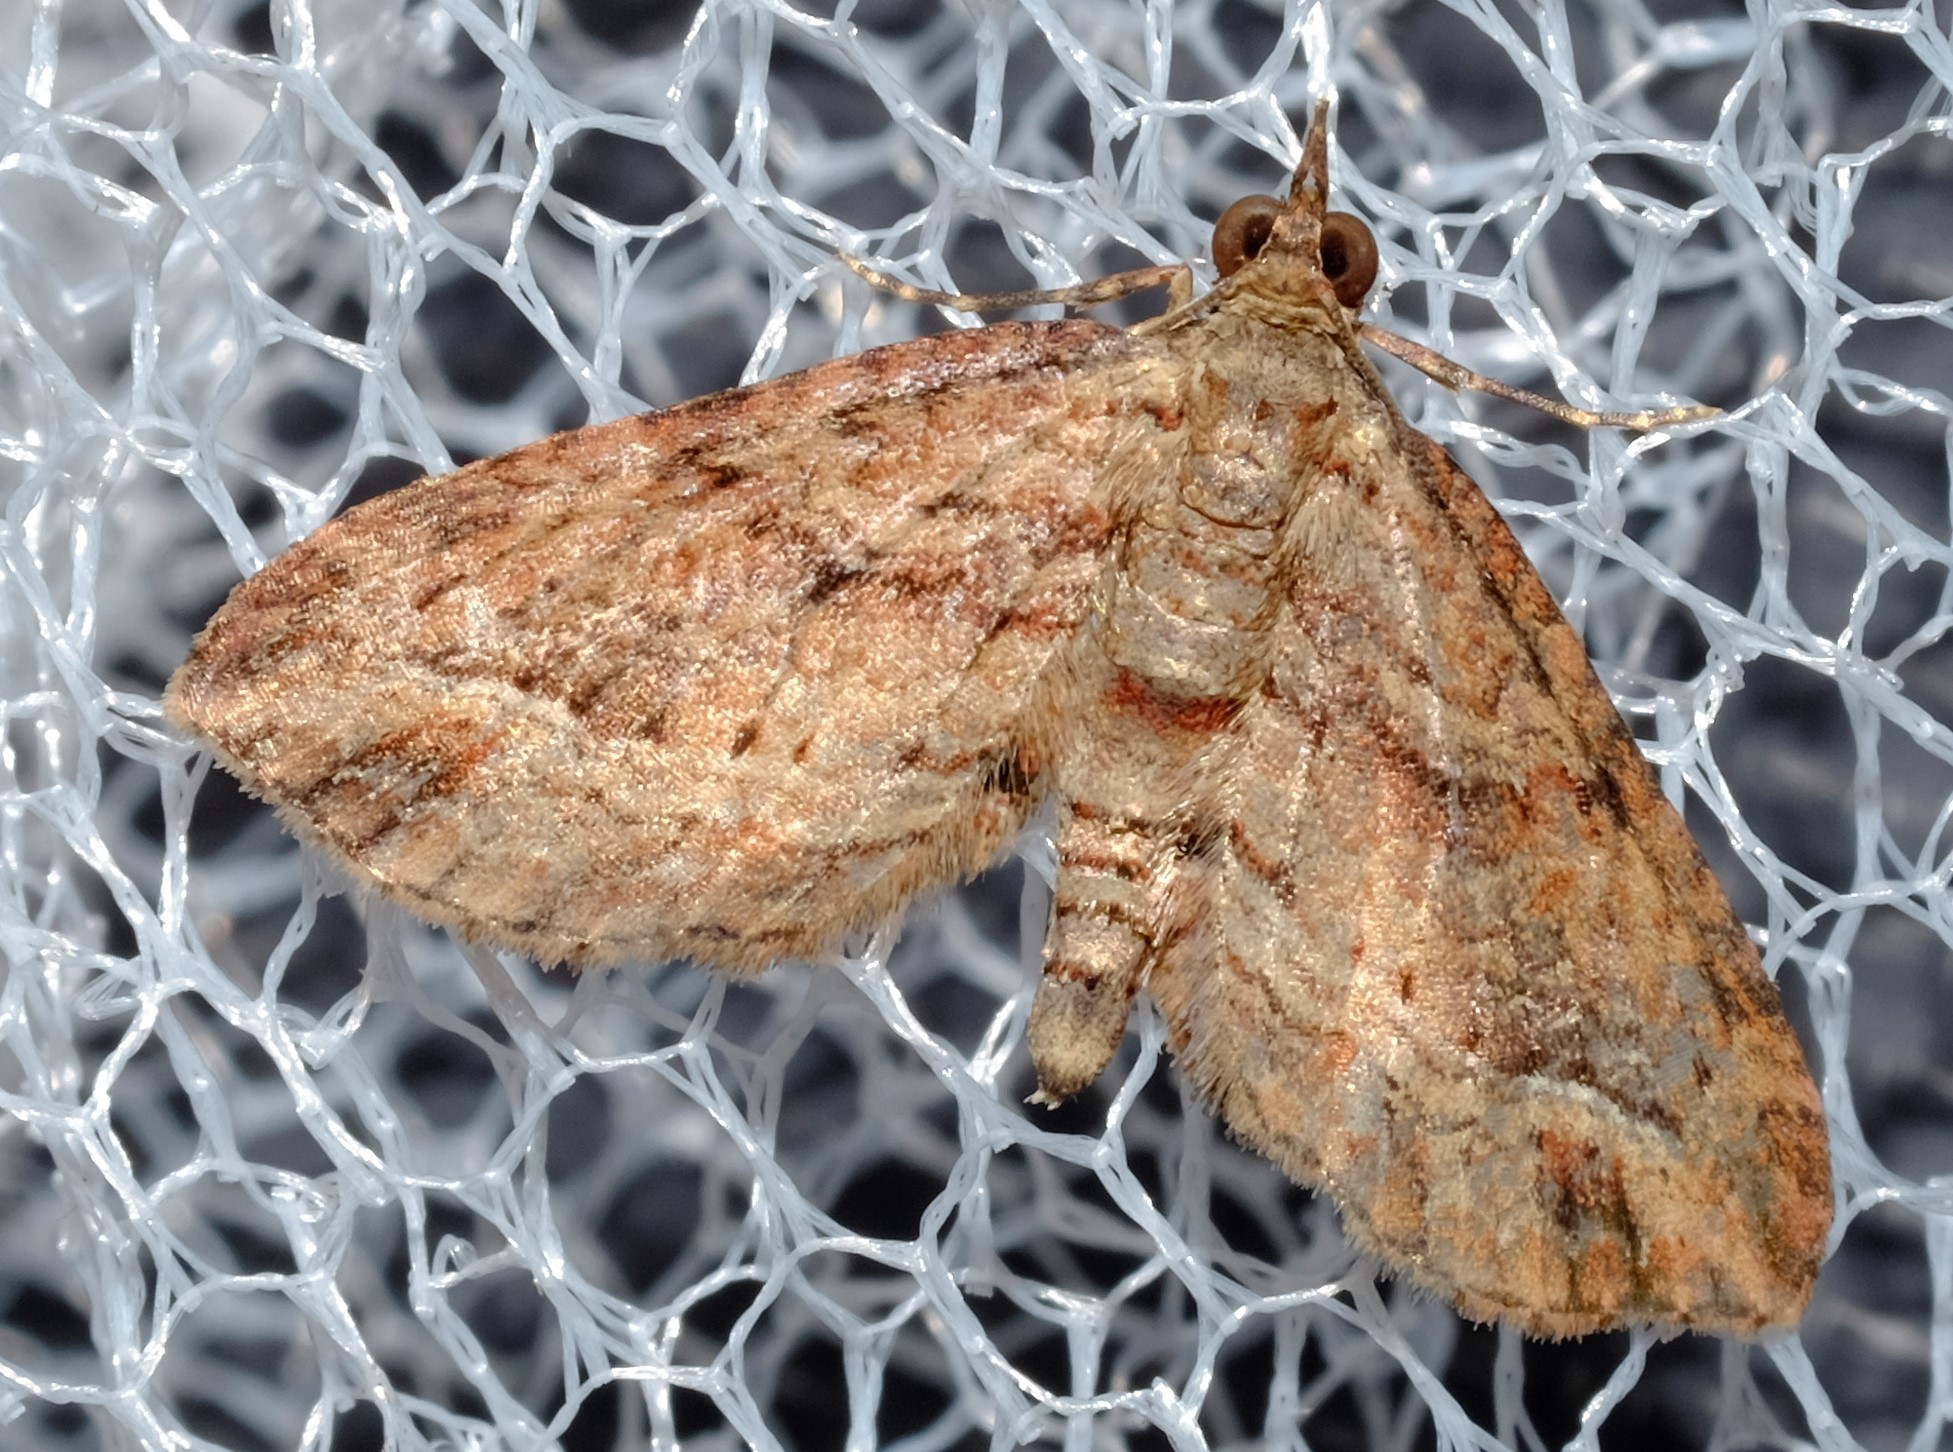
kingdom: Animalia
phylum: Arthropoda
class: Insecta
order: Lepidoptera
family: Geometridae
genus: Chloroclystis
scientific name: Chloroclystis filata
